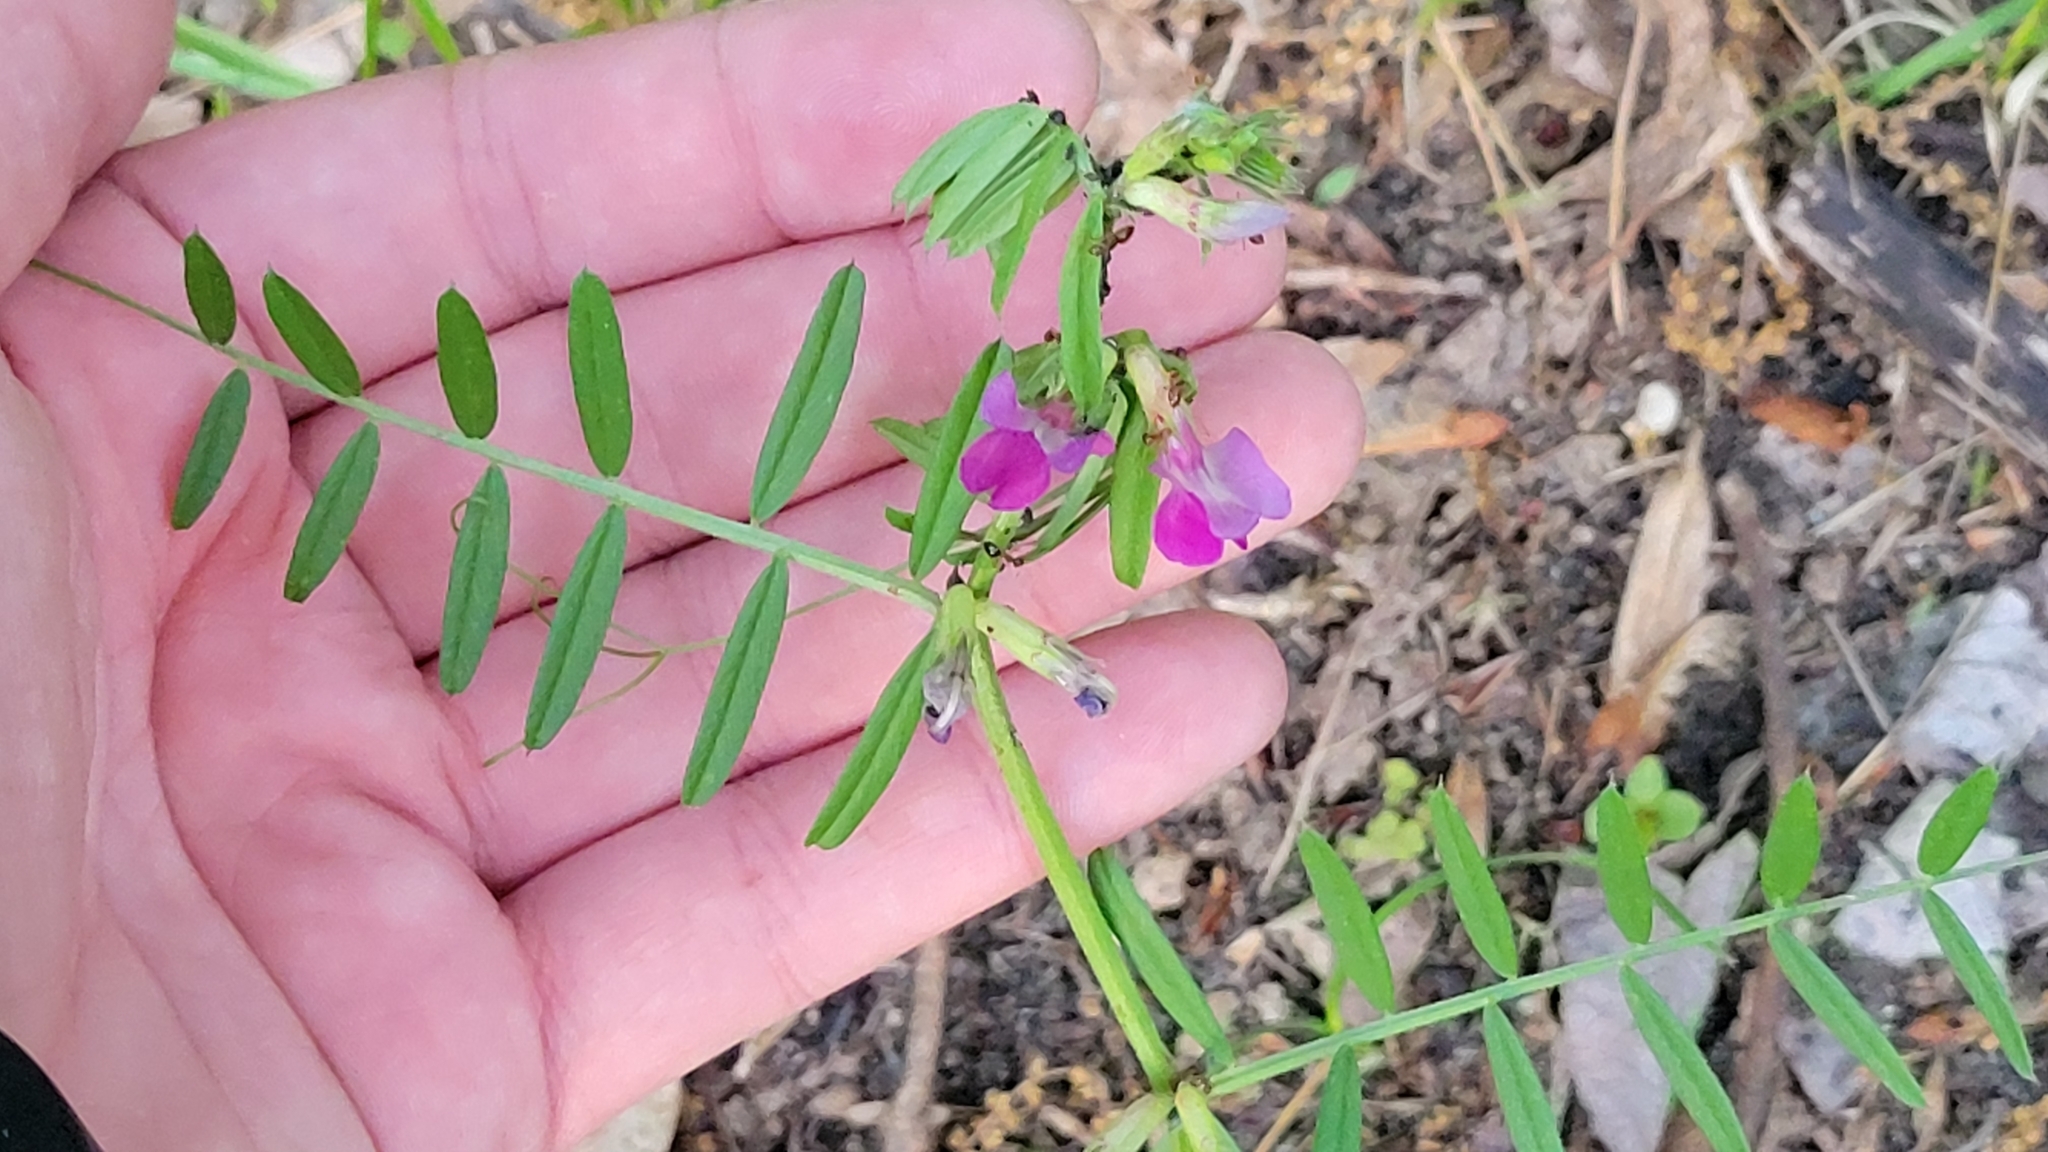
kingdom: Plantae
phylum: Tracheophyta
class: Magnoliopsida
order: Fabales
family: Fabaceae
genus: Vicia
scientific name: Vicia sativa
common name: Garden vetch
